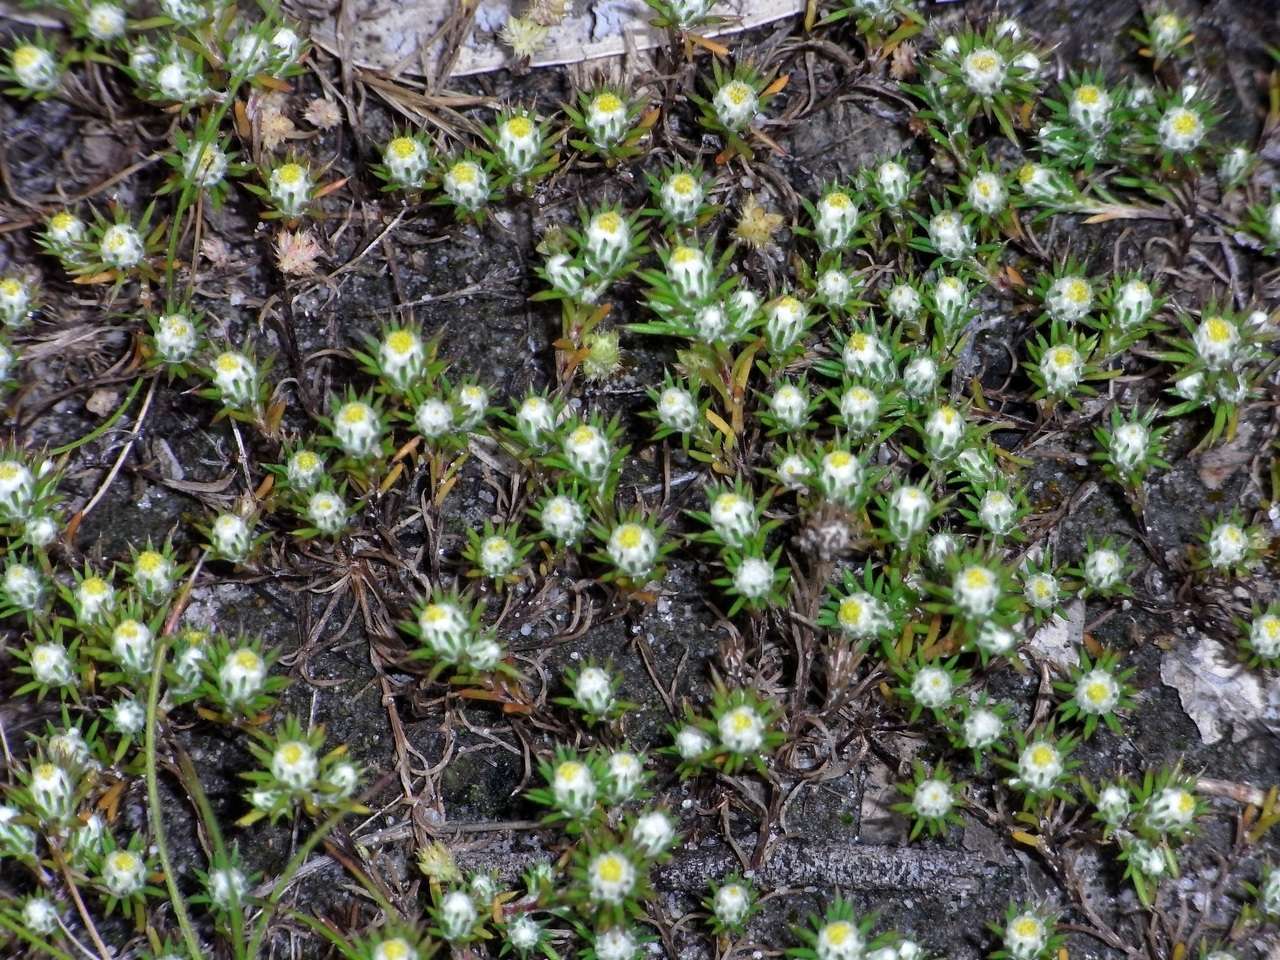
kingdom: Plantae
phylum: Tracheophyta
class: Magnoliopsida
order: Asterales
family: Asteraceae
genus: Pogonolepis
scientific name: Pogonolepis muelleriana
